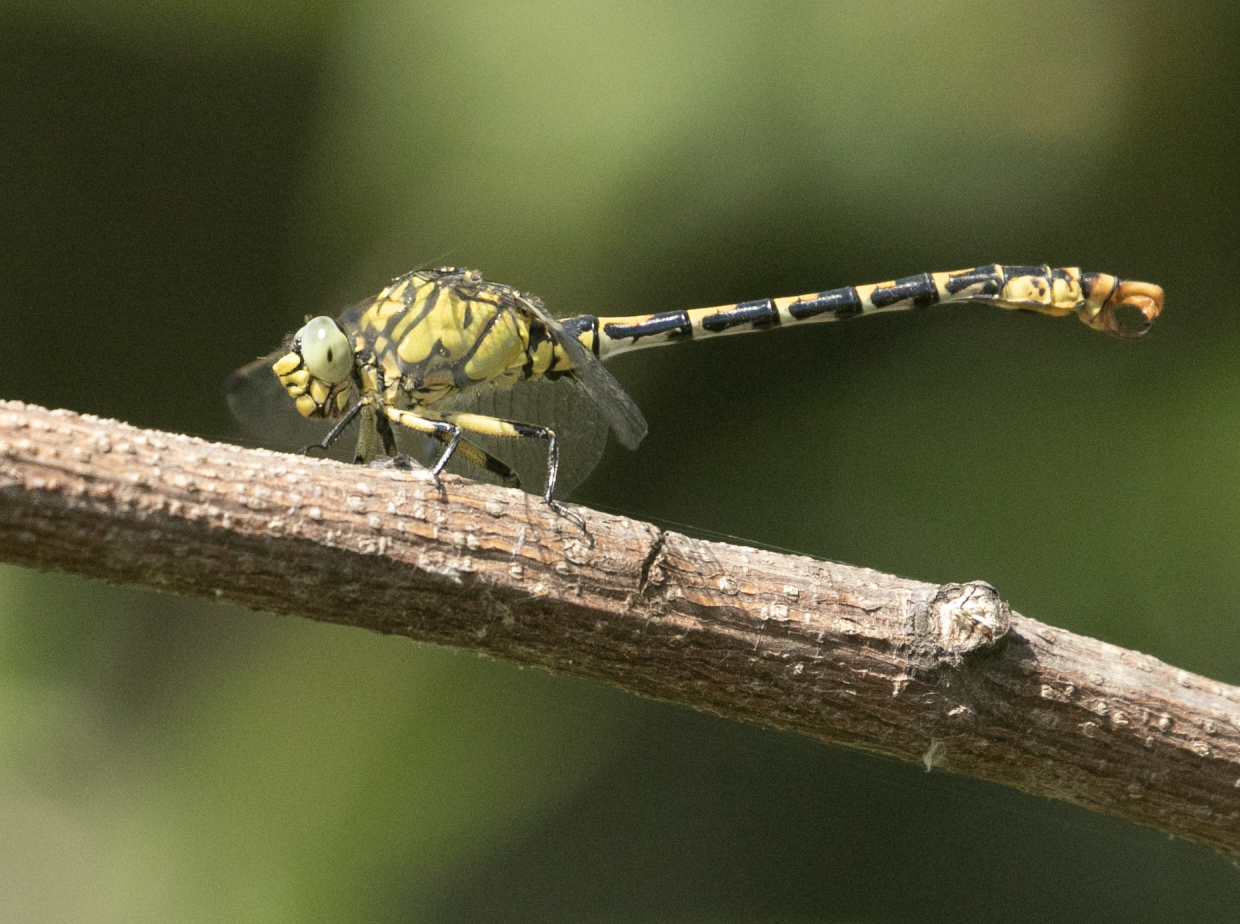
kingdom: Animalia
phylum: Arthropoda
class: Insecta
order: Odonata
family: Gomphidae
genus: Onychogomphus
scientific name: Onychogomphus forcipatus
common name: Small pincertail
